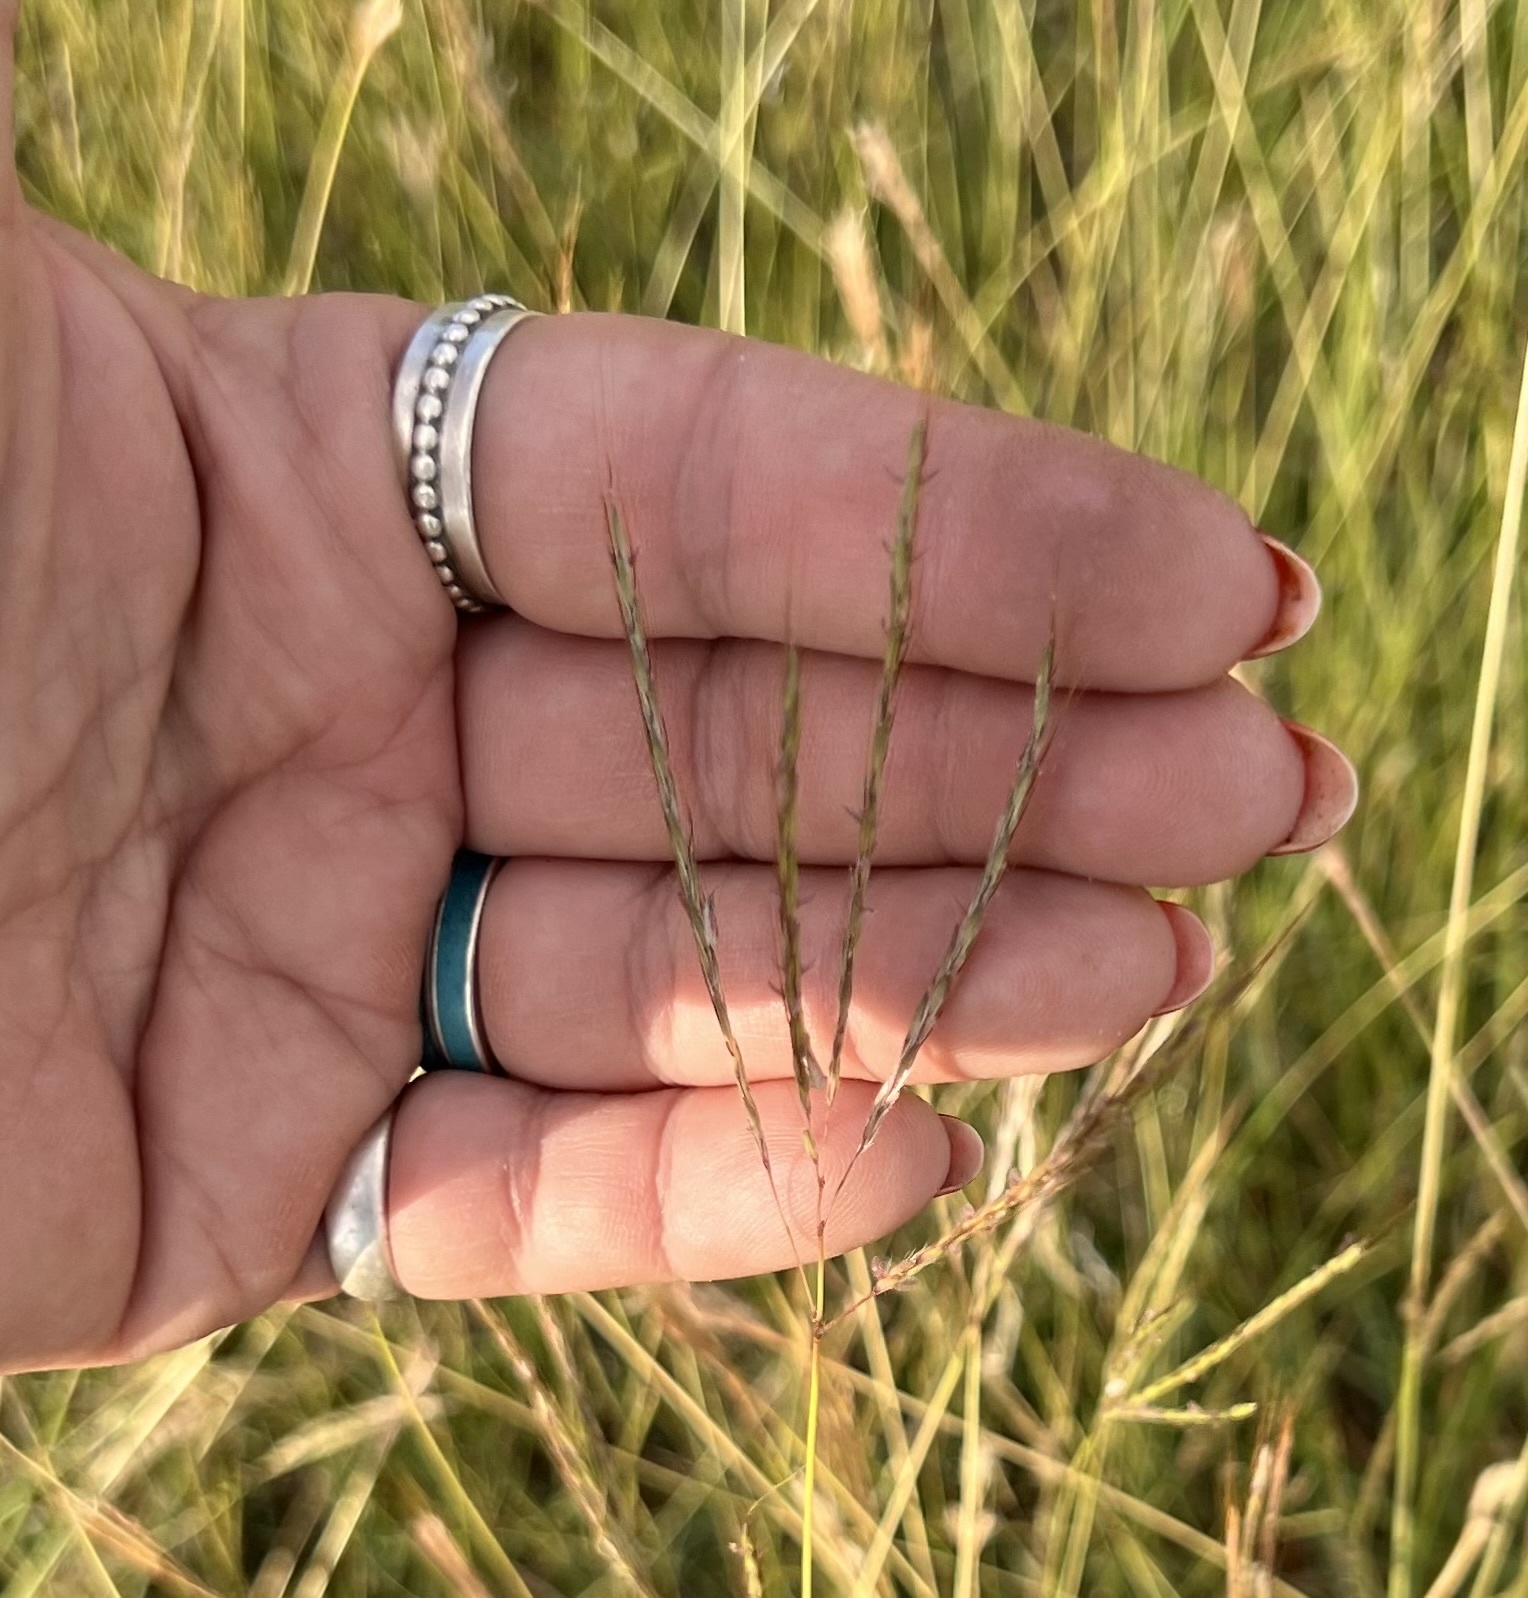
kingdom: Plantae
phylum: Tracheophyta
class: Liliopsida
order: Poales
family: Poaceae
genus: Bothriochloa
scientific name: Bothriochloa ischaemum
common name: Yellow bluestem
